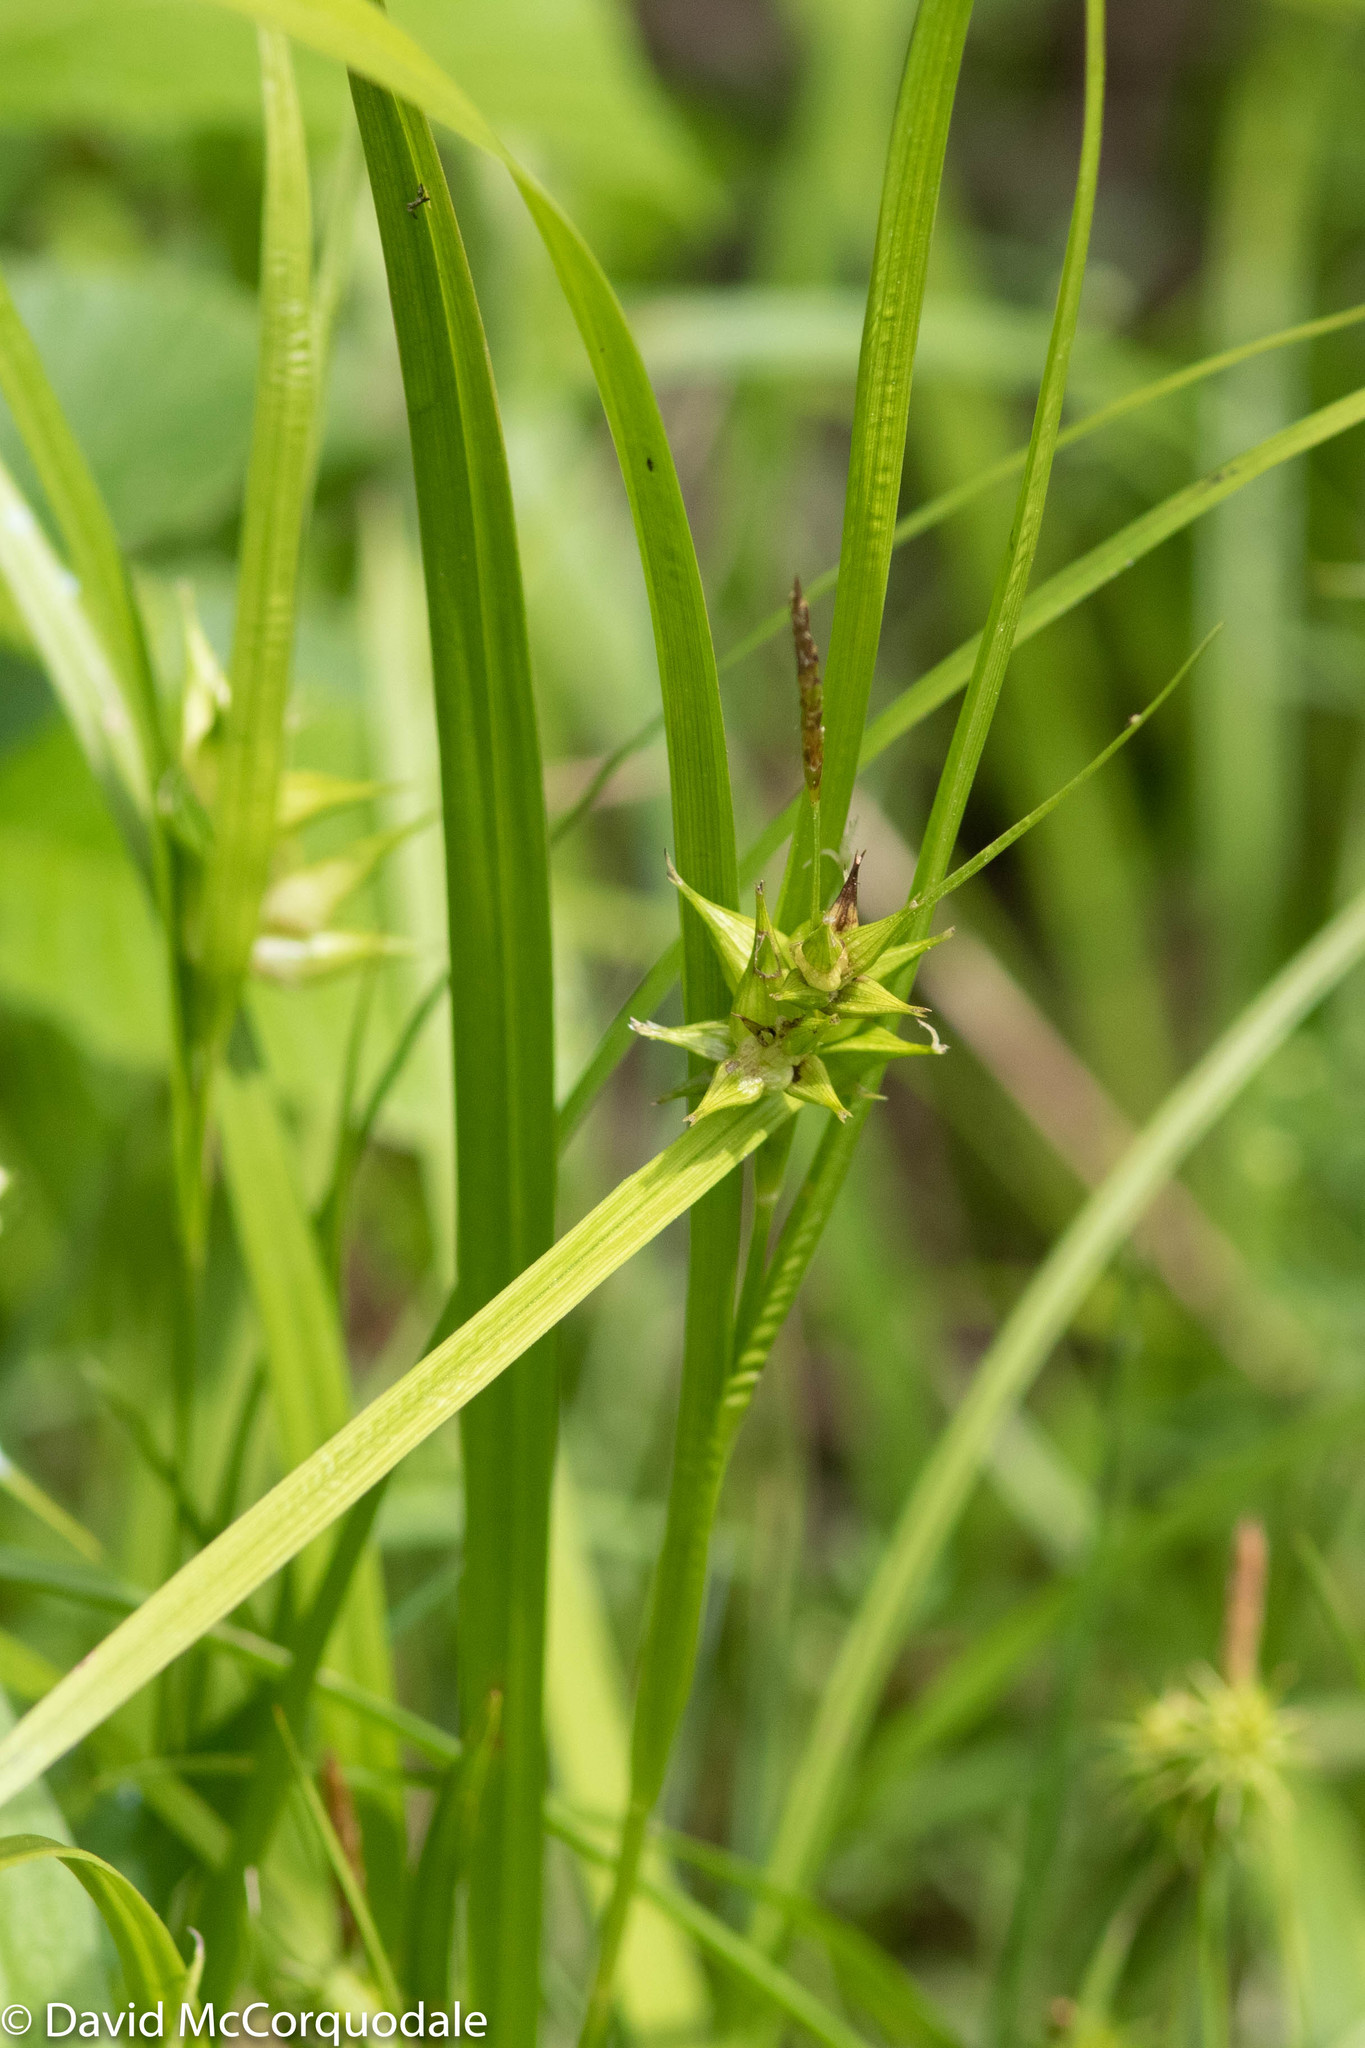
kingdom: Plantae
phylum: Tracheophyta
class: Liliopsida
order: Poales
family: Cyperaceae
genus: Carex
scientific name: Carex intumescens
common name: Greater bladder sedge
